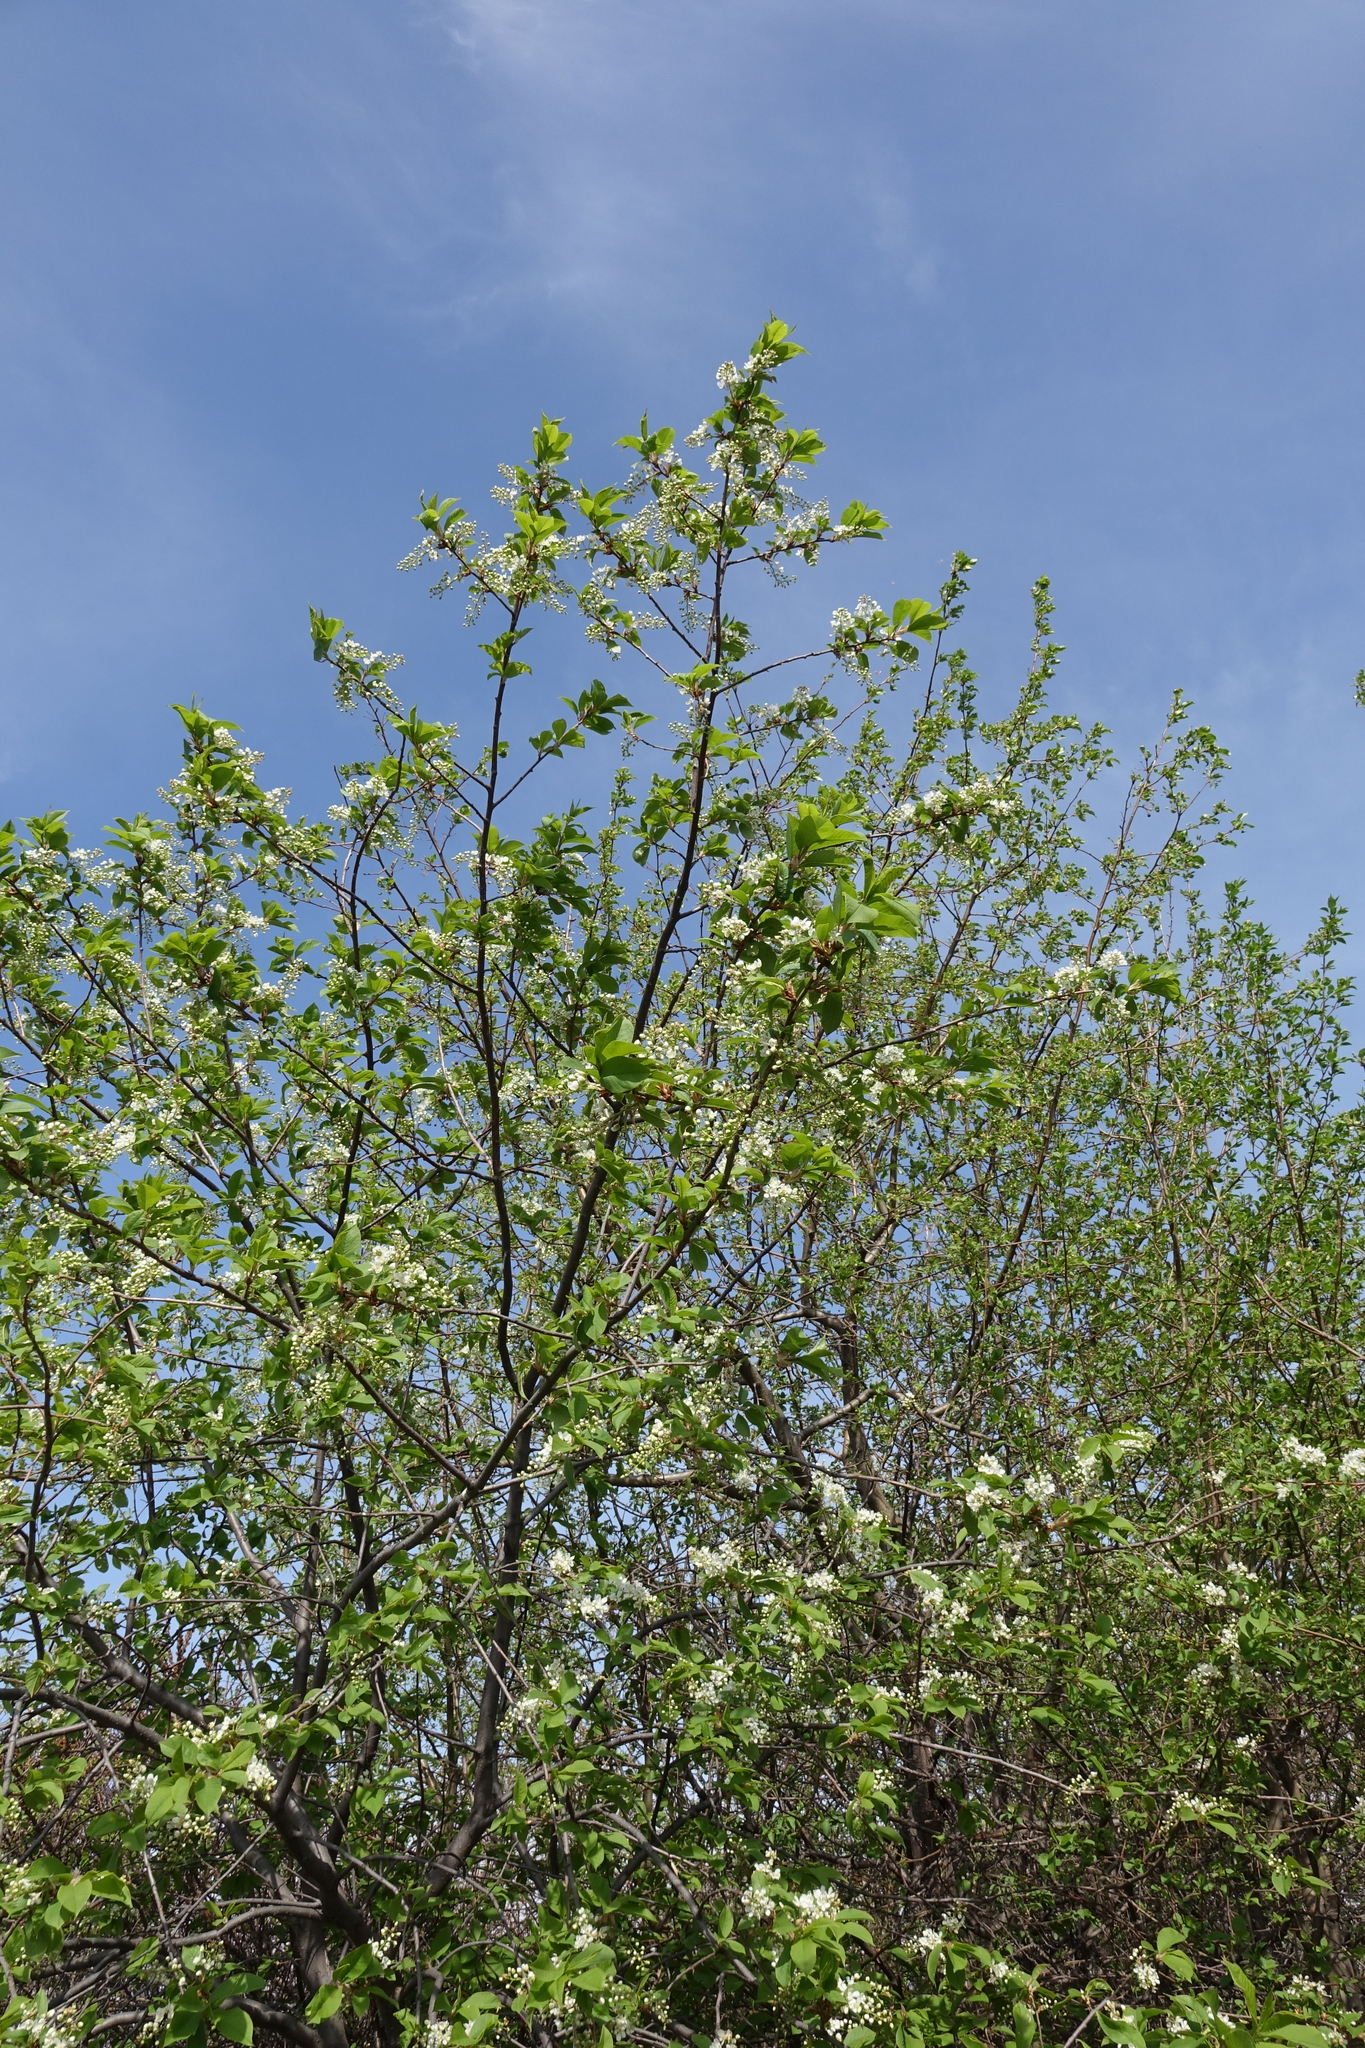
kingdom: Plantae
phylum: Tracheophyta
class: Magnoliopsida
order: Rosales
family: Rosaceae
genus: Prunus
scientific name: Prunus padus
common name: Bird cherry
